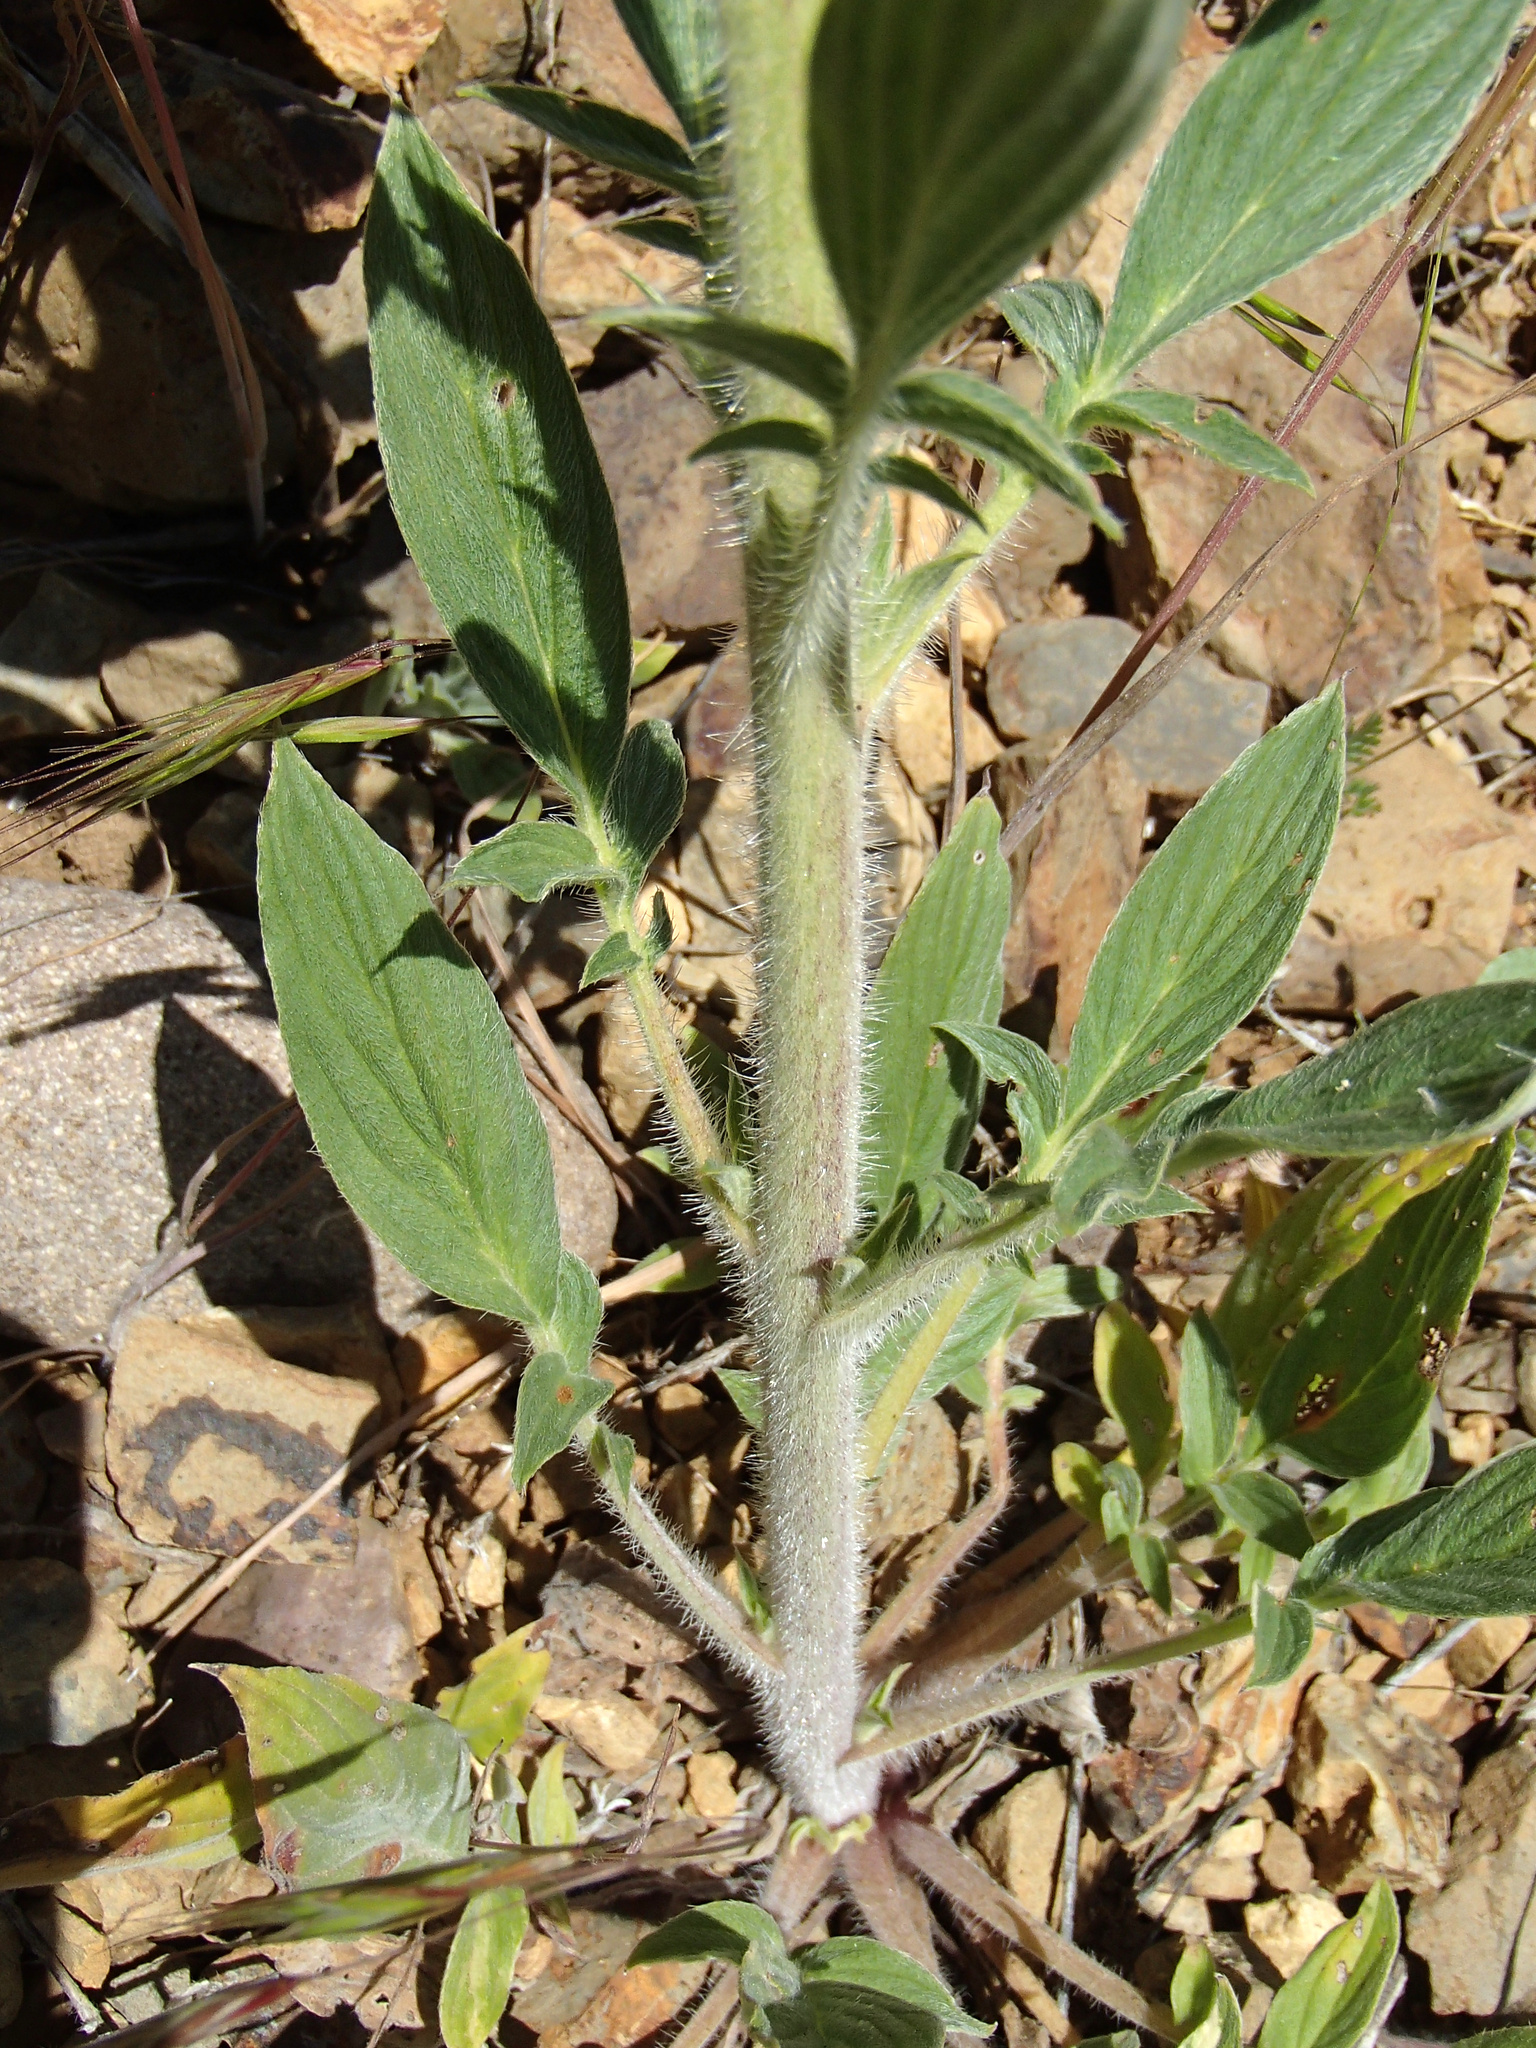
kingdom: Plantae
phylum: Tracheophyta
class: Magnoliopsida
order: Boraginales
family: Hydrophyllaceae
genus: Phacelia
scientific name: Phacelia heterophylla
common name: Variable-leaved phacelia
